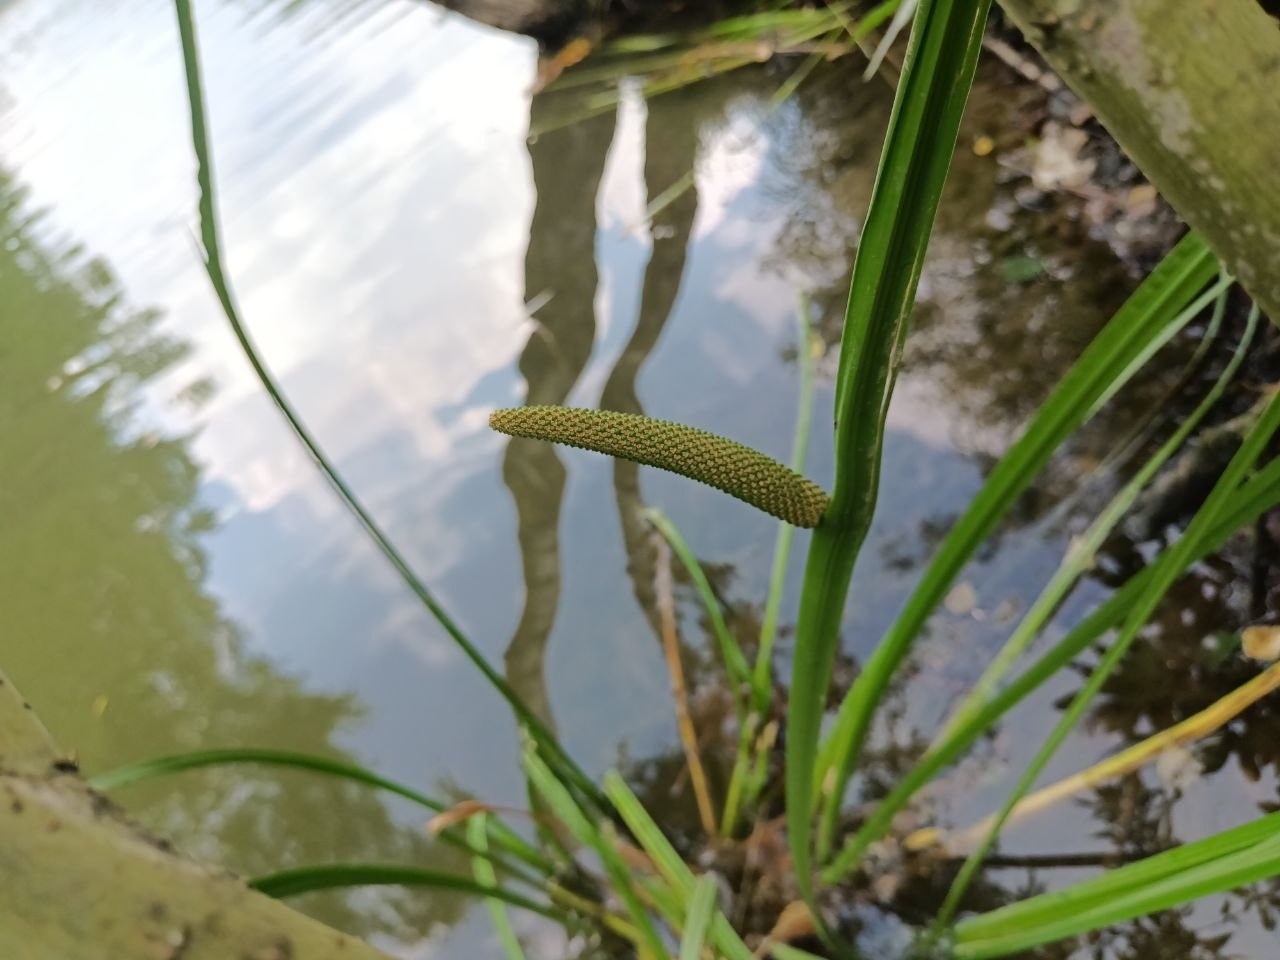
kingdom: Plantae
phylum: Tracheophyta
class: Liliopsida
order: Acorales
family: Acoraceae
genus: Acorus
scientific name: Acorus calamus
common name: Sweet-flag
